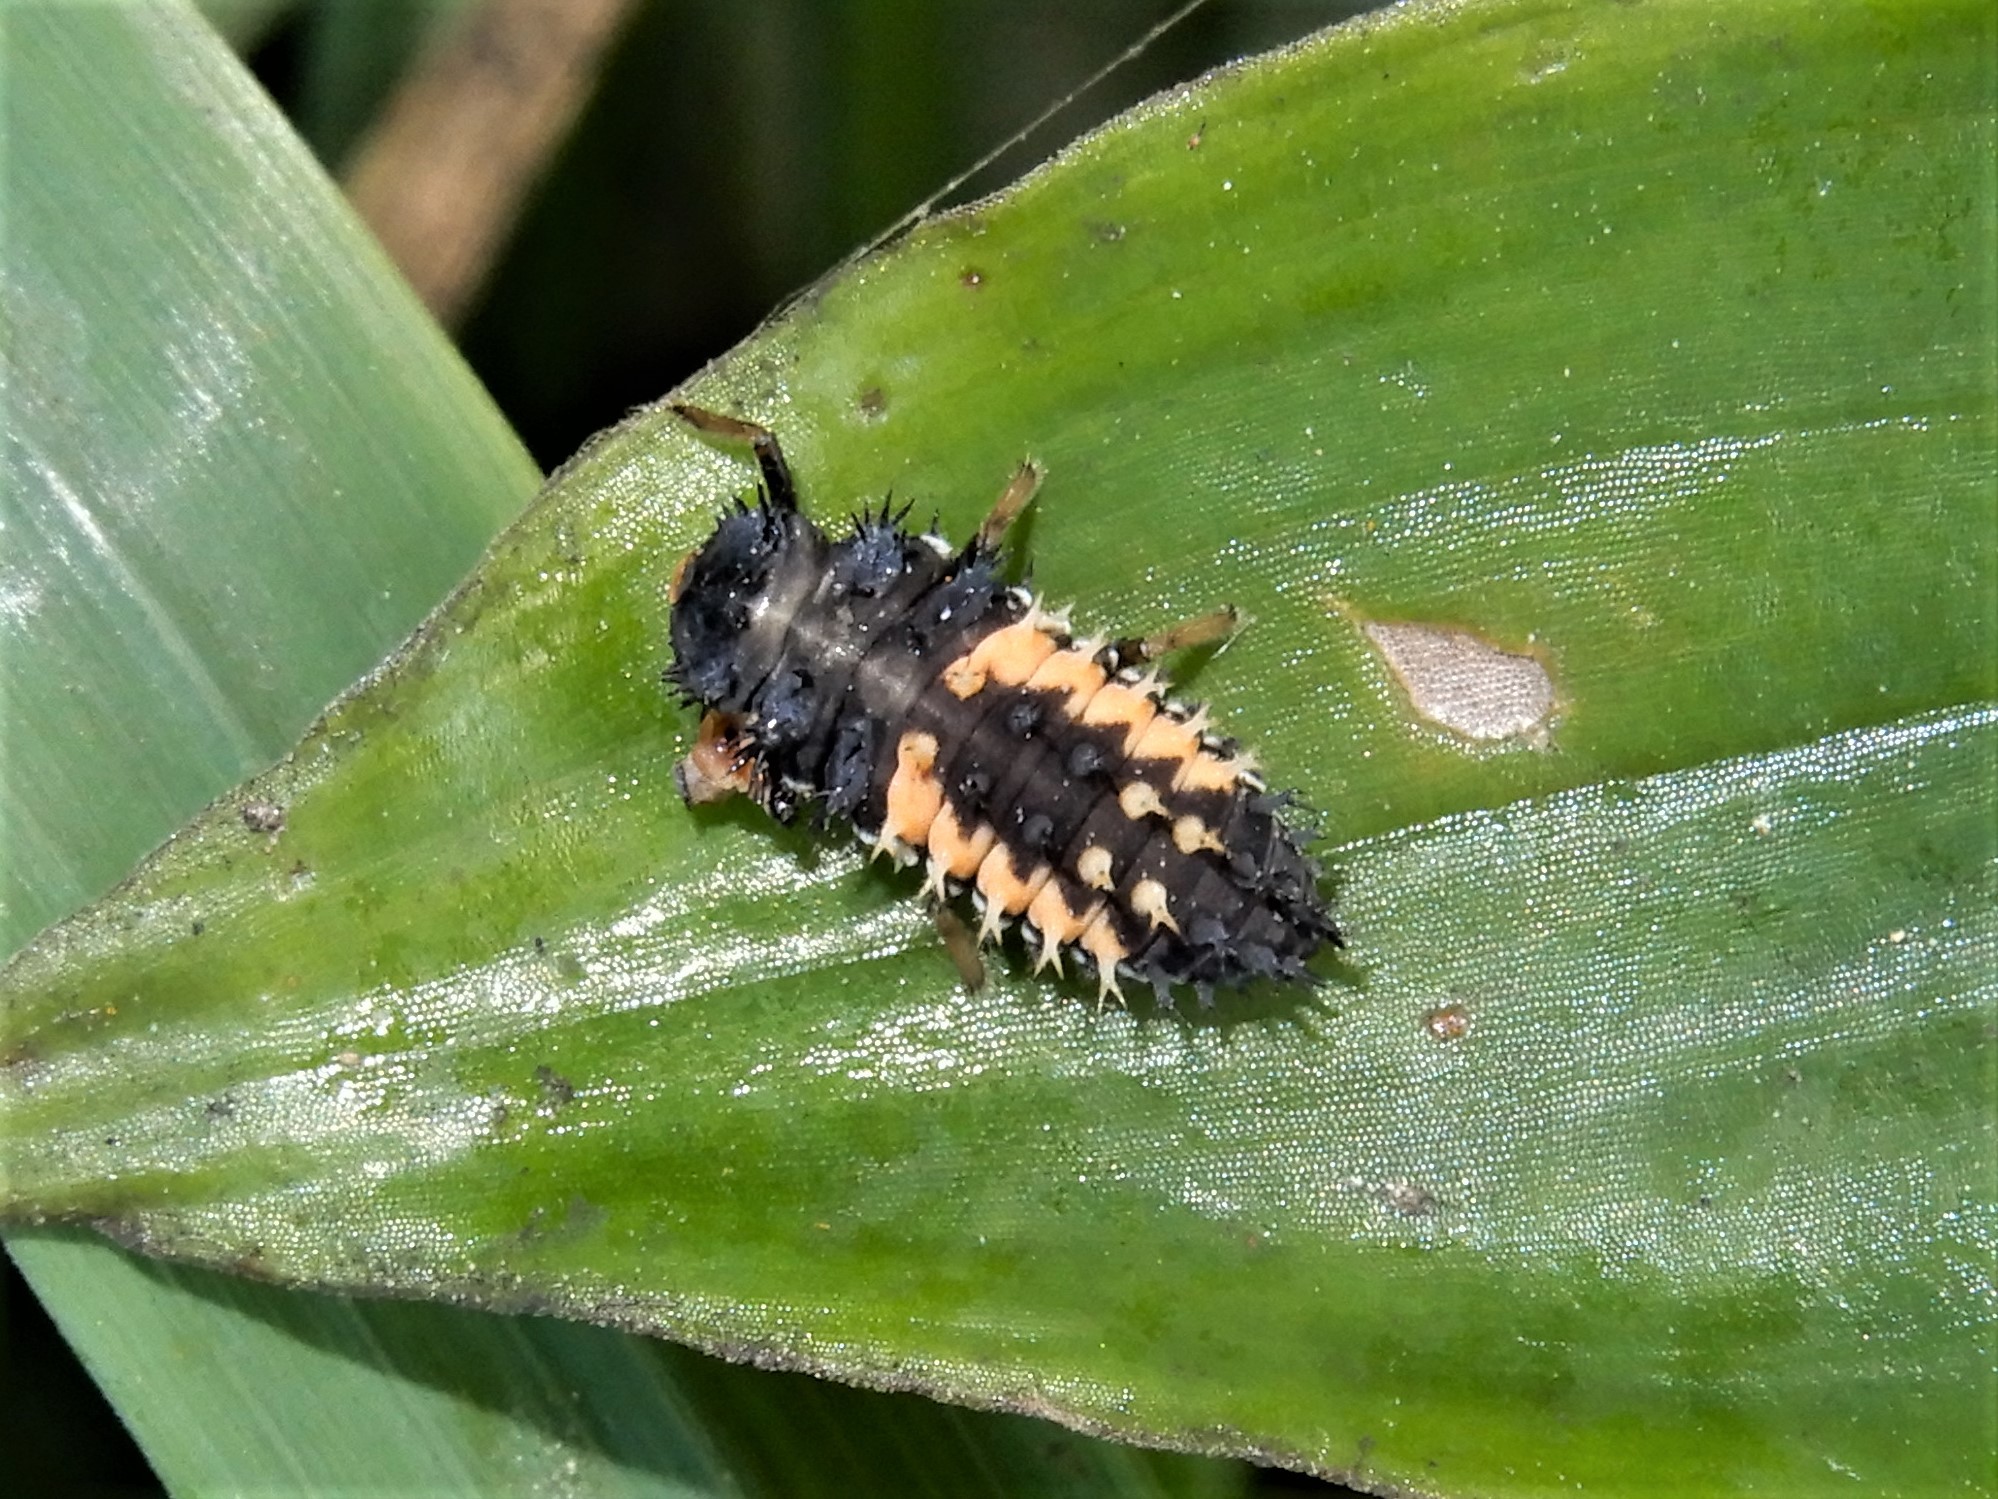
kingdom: Animalia
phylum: Arthropoda
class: Insecta
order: Coleoptera
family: Coccinellidae
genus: Harmonia
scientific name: Harmonia axyridis
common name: Harlequin ladybird
